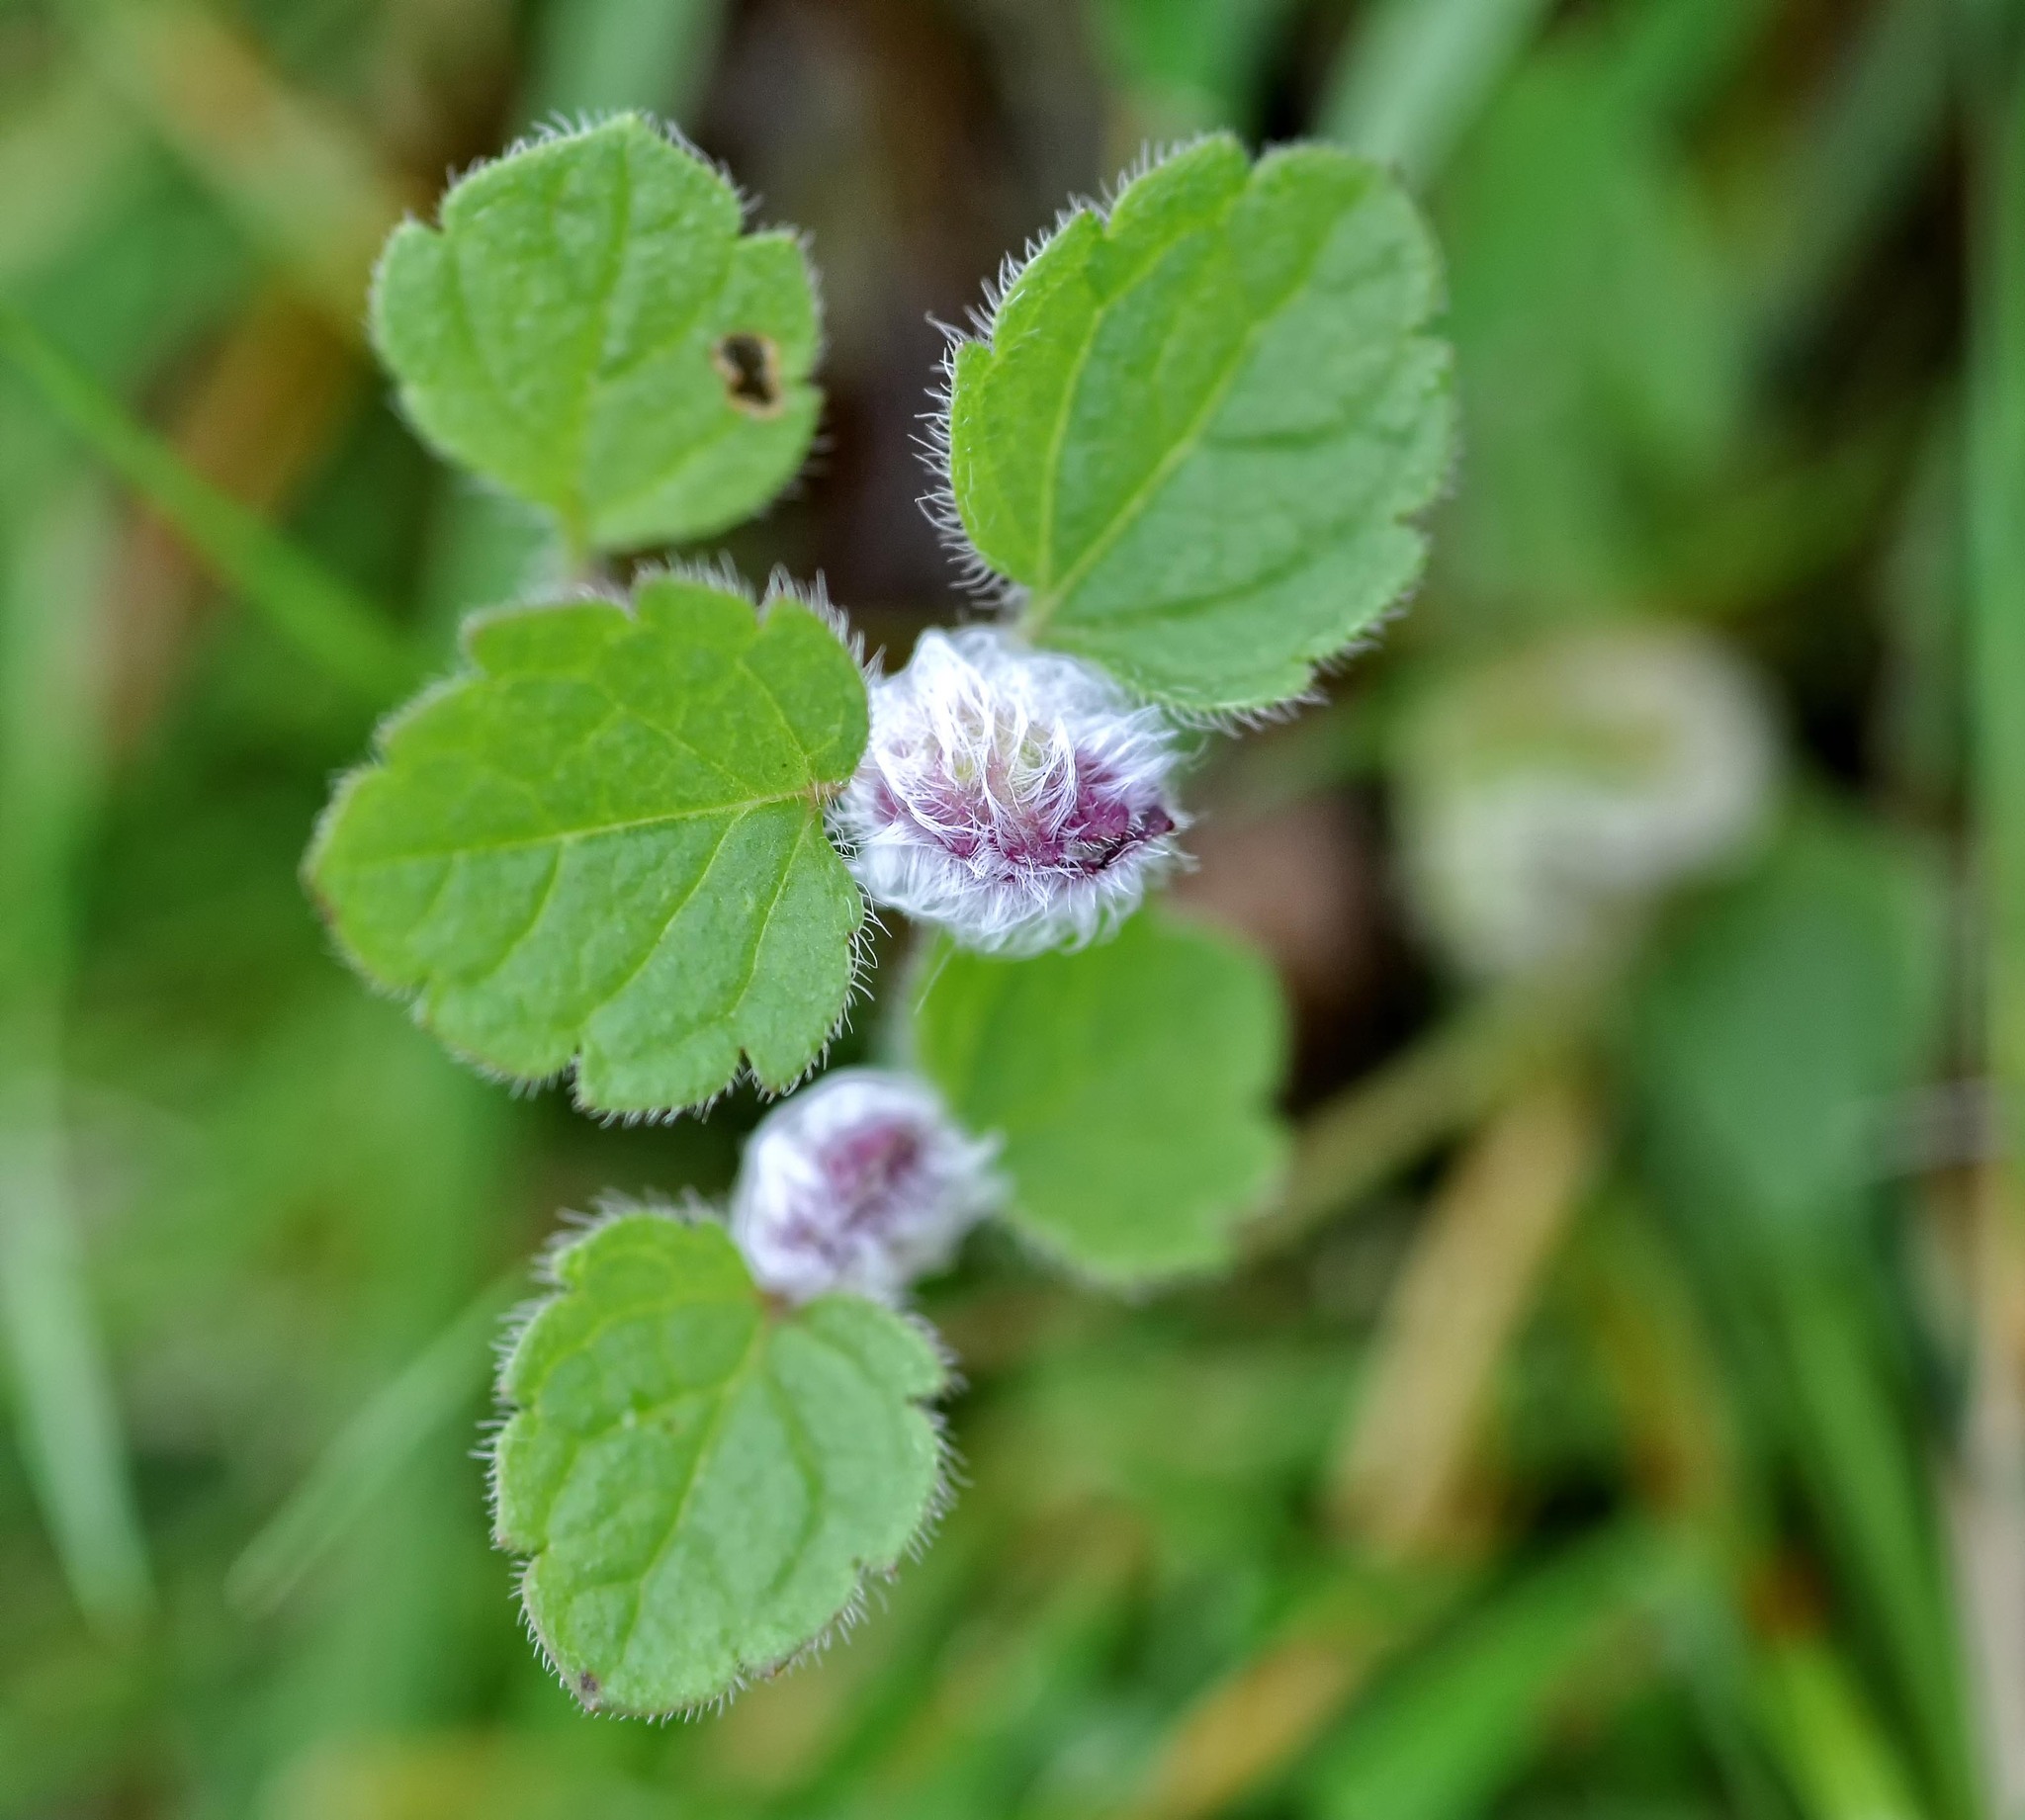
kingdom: Animalia
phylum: Arthropoda
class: Insecta
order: Diptera
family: Cecidomyiidae
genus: Jaapiella
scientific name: Jaapiella veronicae
